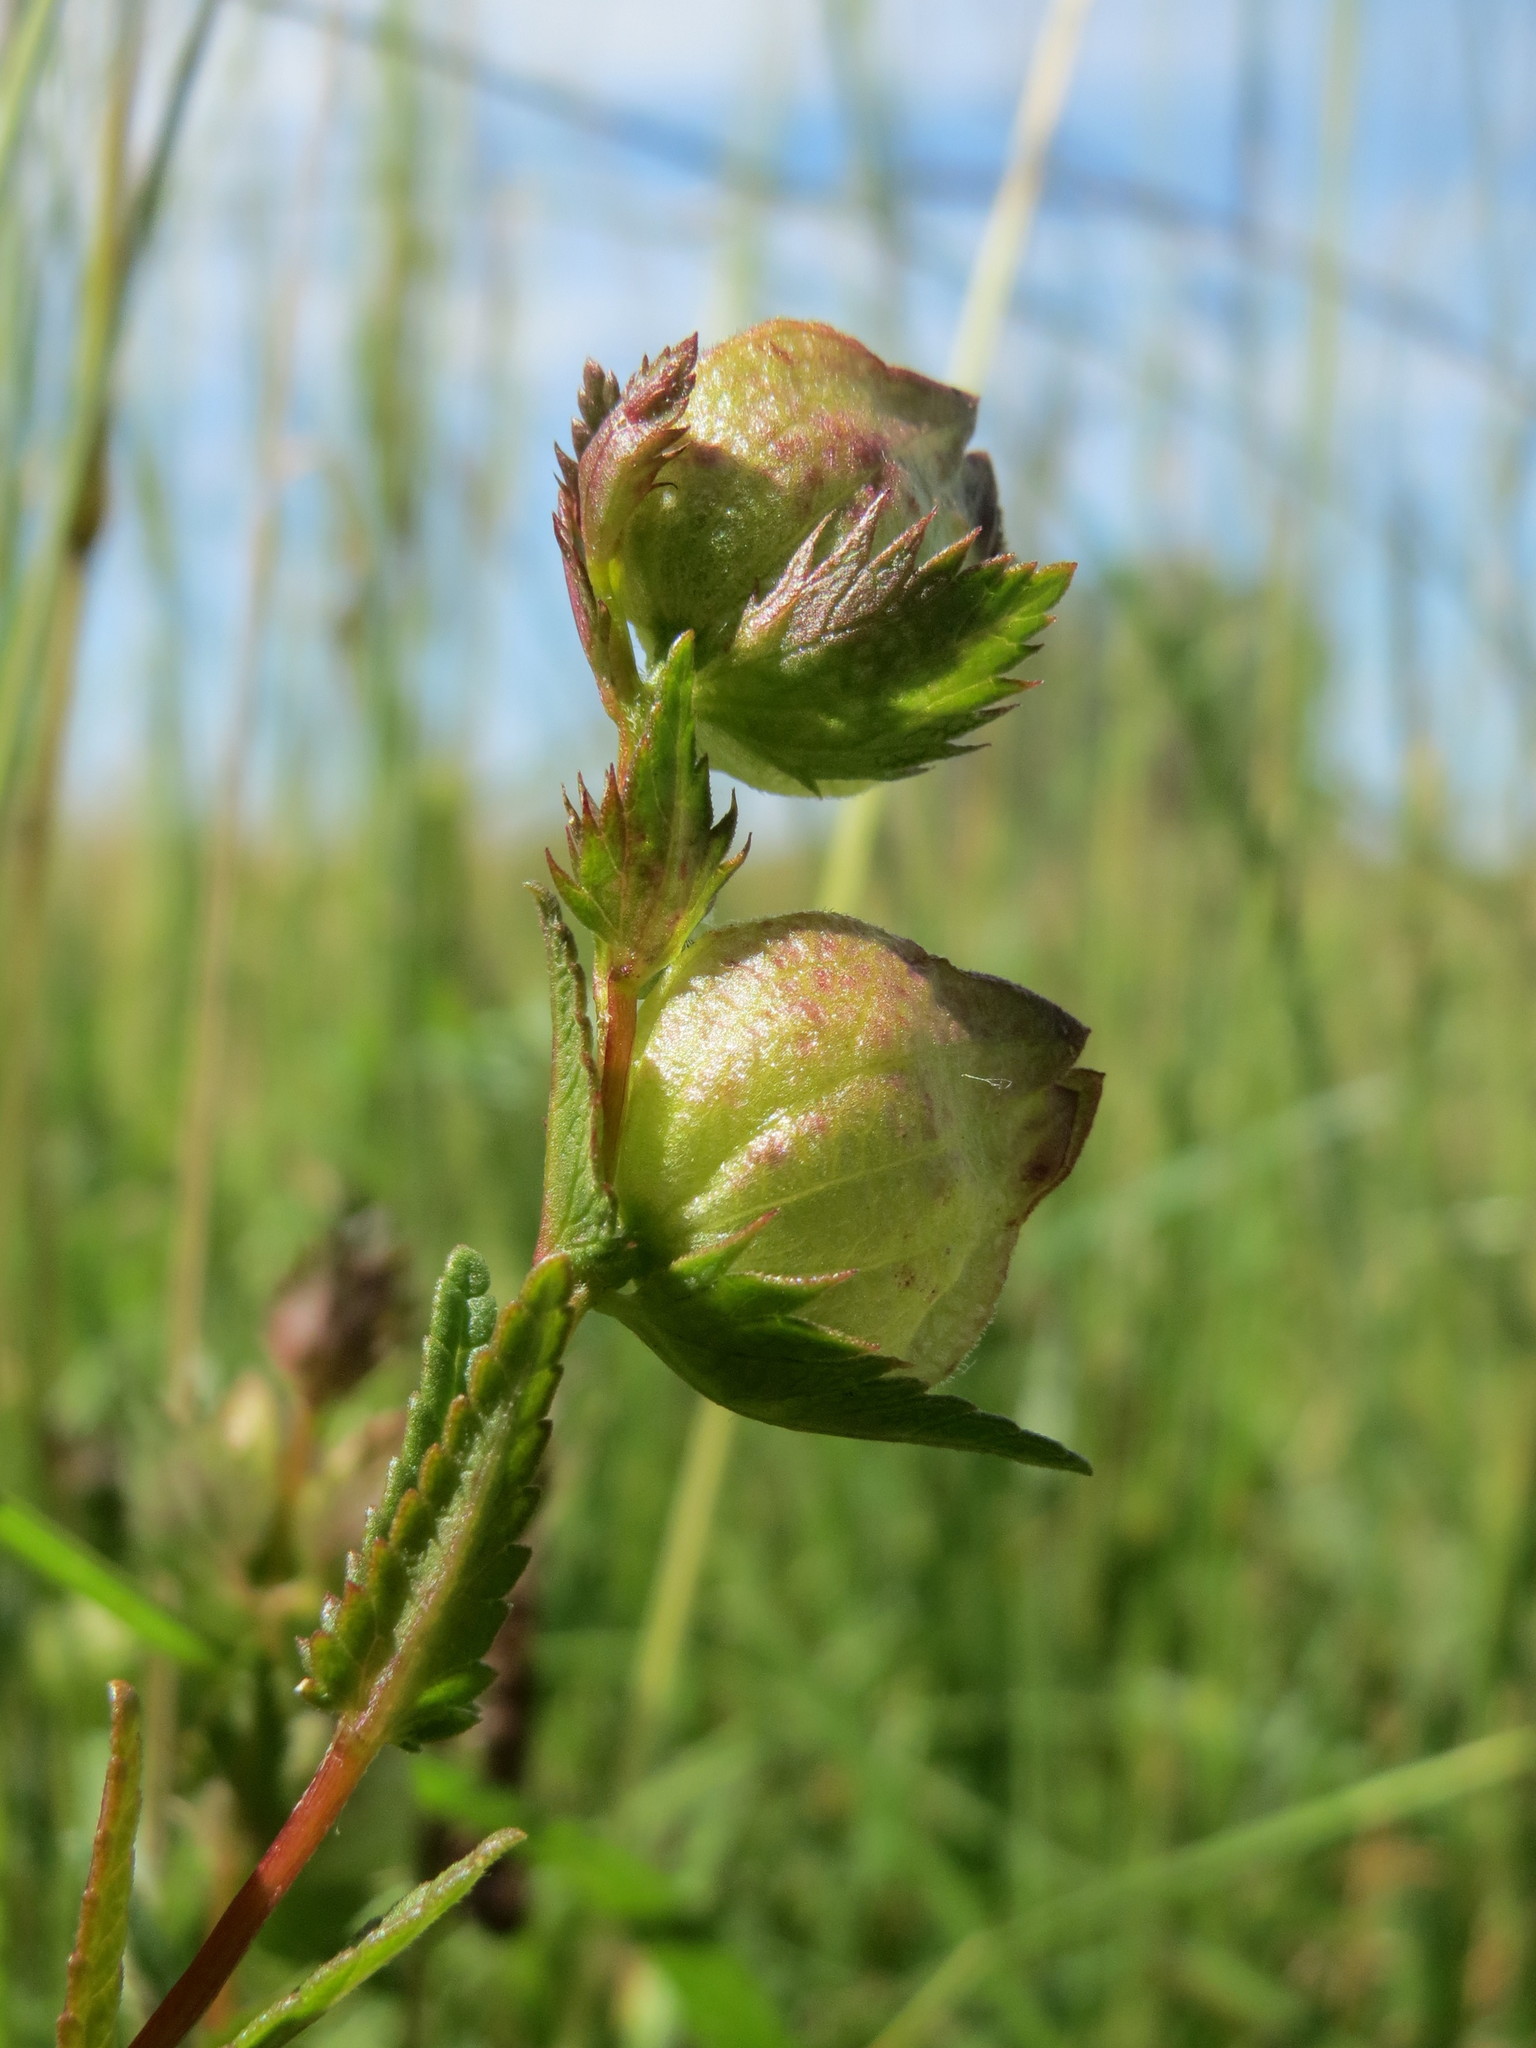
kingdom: Plantae
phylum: Tracheophyta
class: Magnoliopsida
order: Lamiales
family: Orobanchaceae
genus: Rhinanthus
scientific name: Rhinanthus minor
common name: Yellow-rattle
